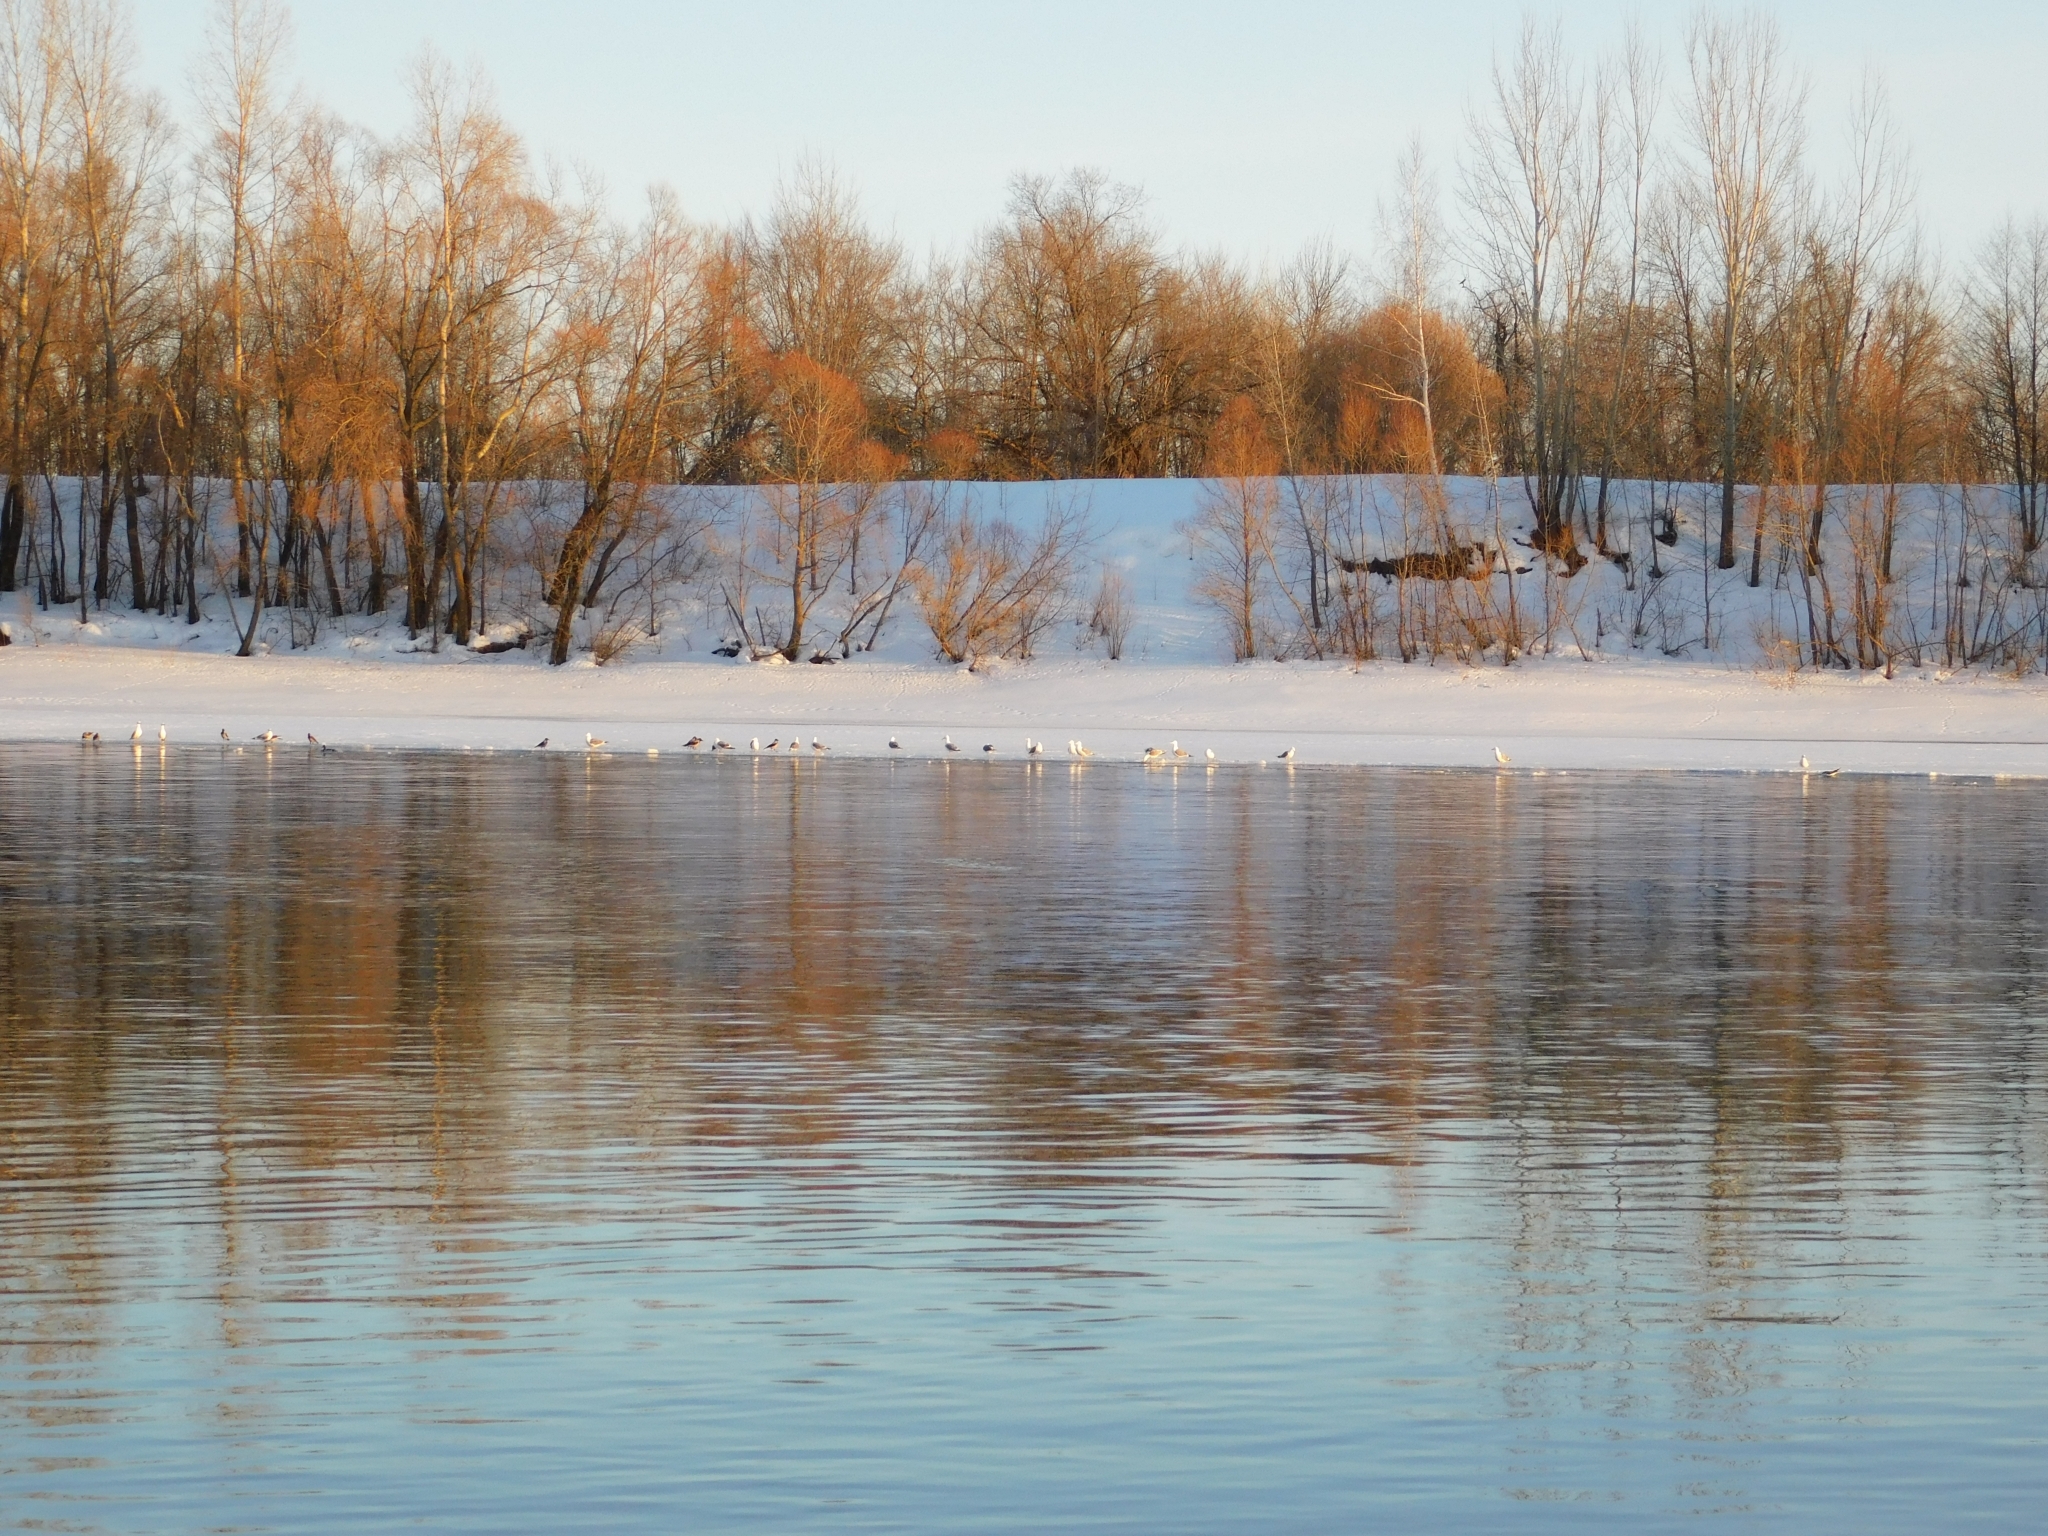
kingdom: Animalia
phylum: Chordata
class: Aves
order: Charadriiformes
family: Laridae
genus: Larus
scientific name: Larus fuscus
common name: Lesser black-backed gull
